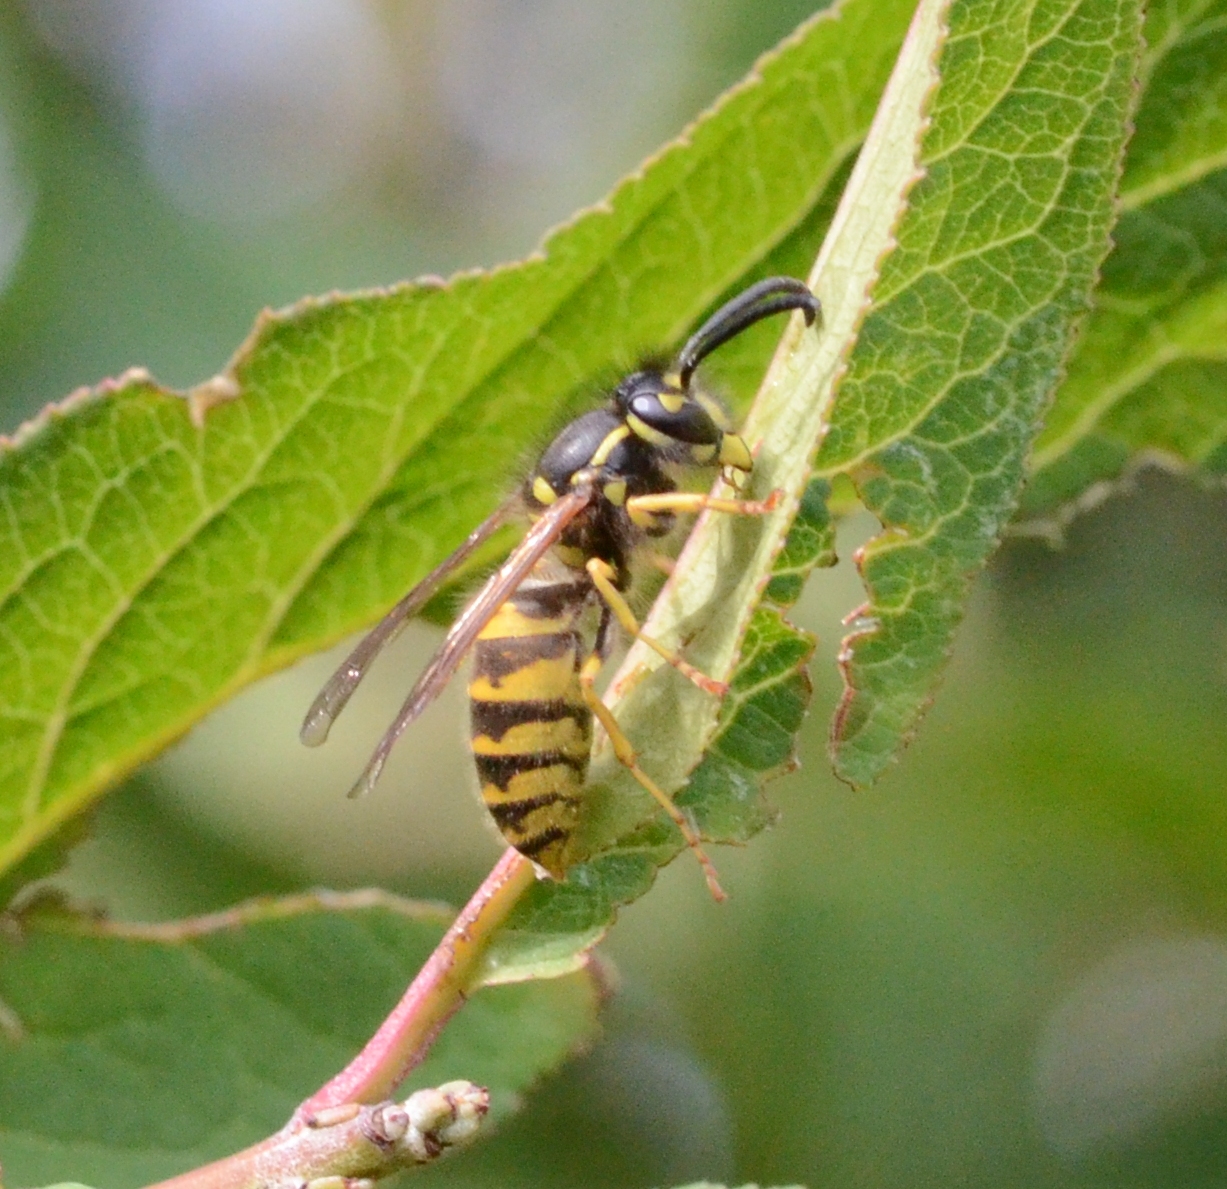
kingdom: Animalia
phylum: Arthropoda
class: Insecta
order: Hymenoptera
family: Vespidae
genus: Vespula
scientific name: Vespula vulgaris
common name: Common wasp
